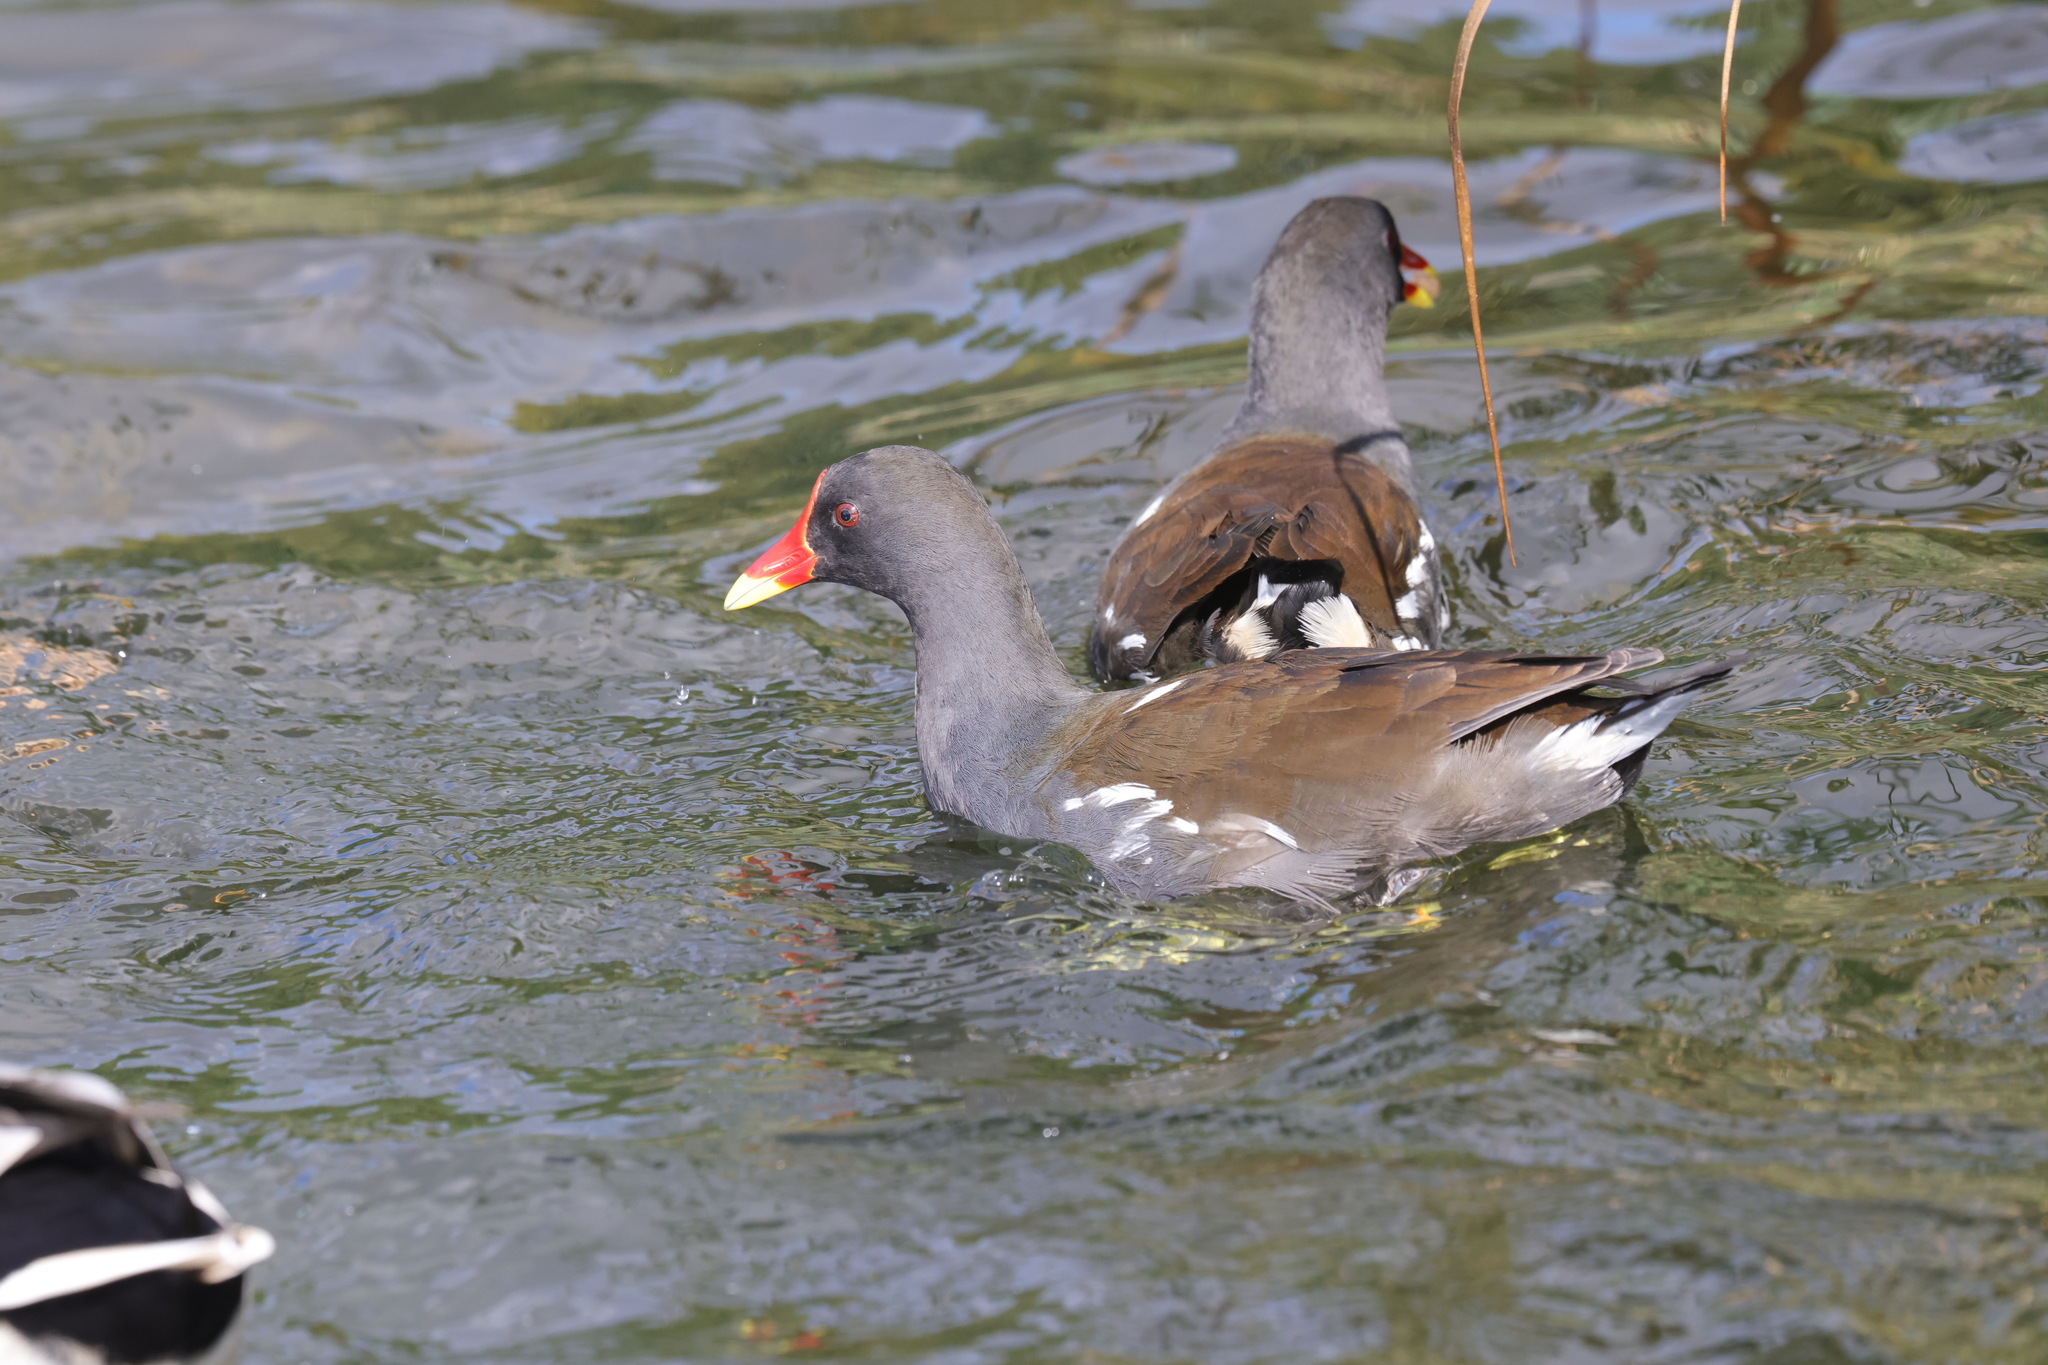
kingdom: Animalia
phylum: Chordata
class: Aves
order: Gruiformes
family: Rallidae
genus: Gallinula
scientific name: Gallinula chloropus
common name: Common moorhen
